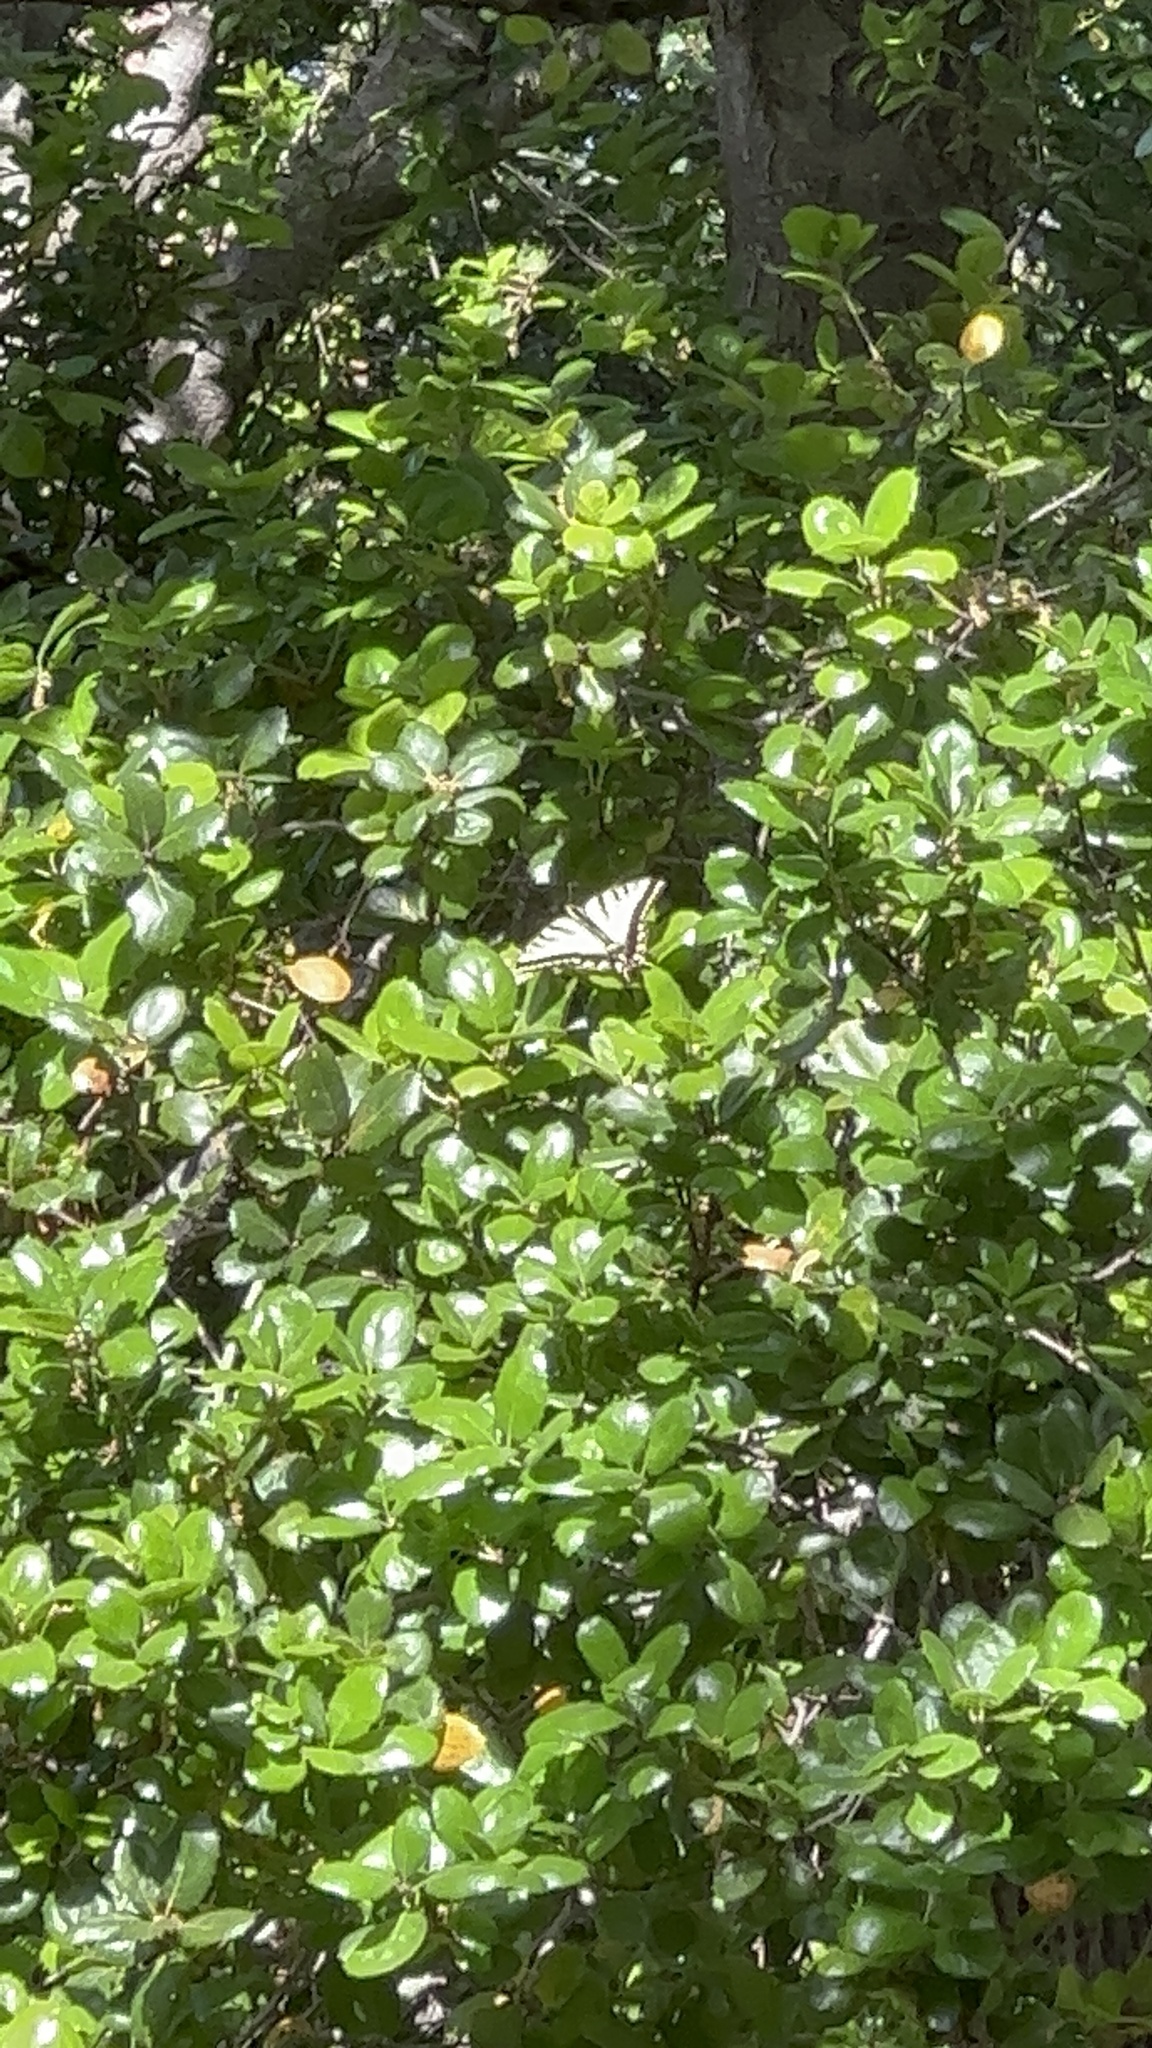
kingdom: Animalia
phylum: Arthropoda
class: Insecta
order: Lepidoptera
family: Papilionidae
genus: Papilio
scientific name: Papilio rutulus
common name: Western tiger swallowtail
